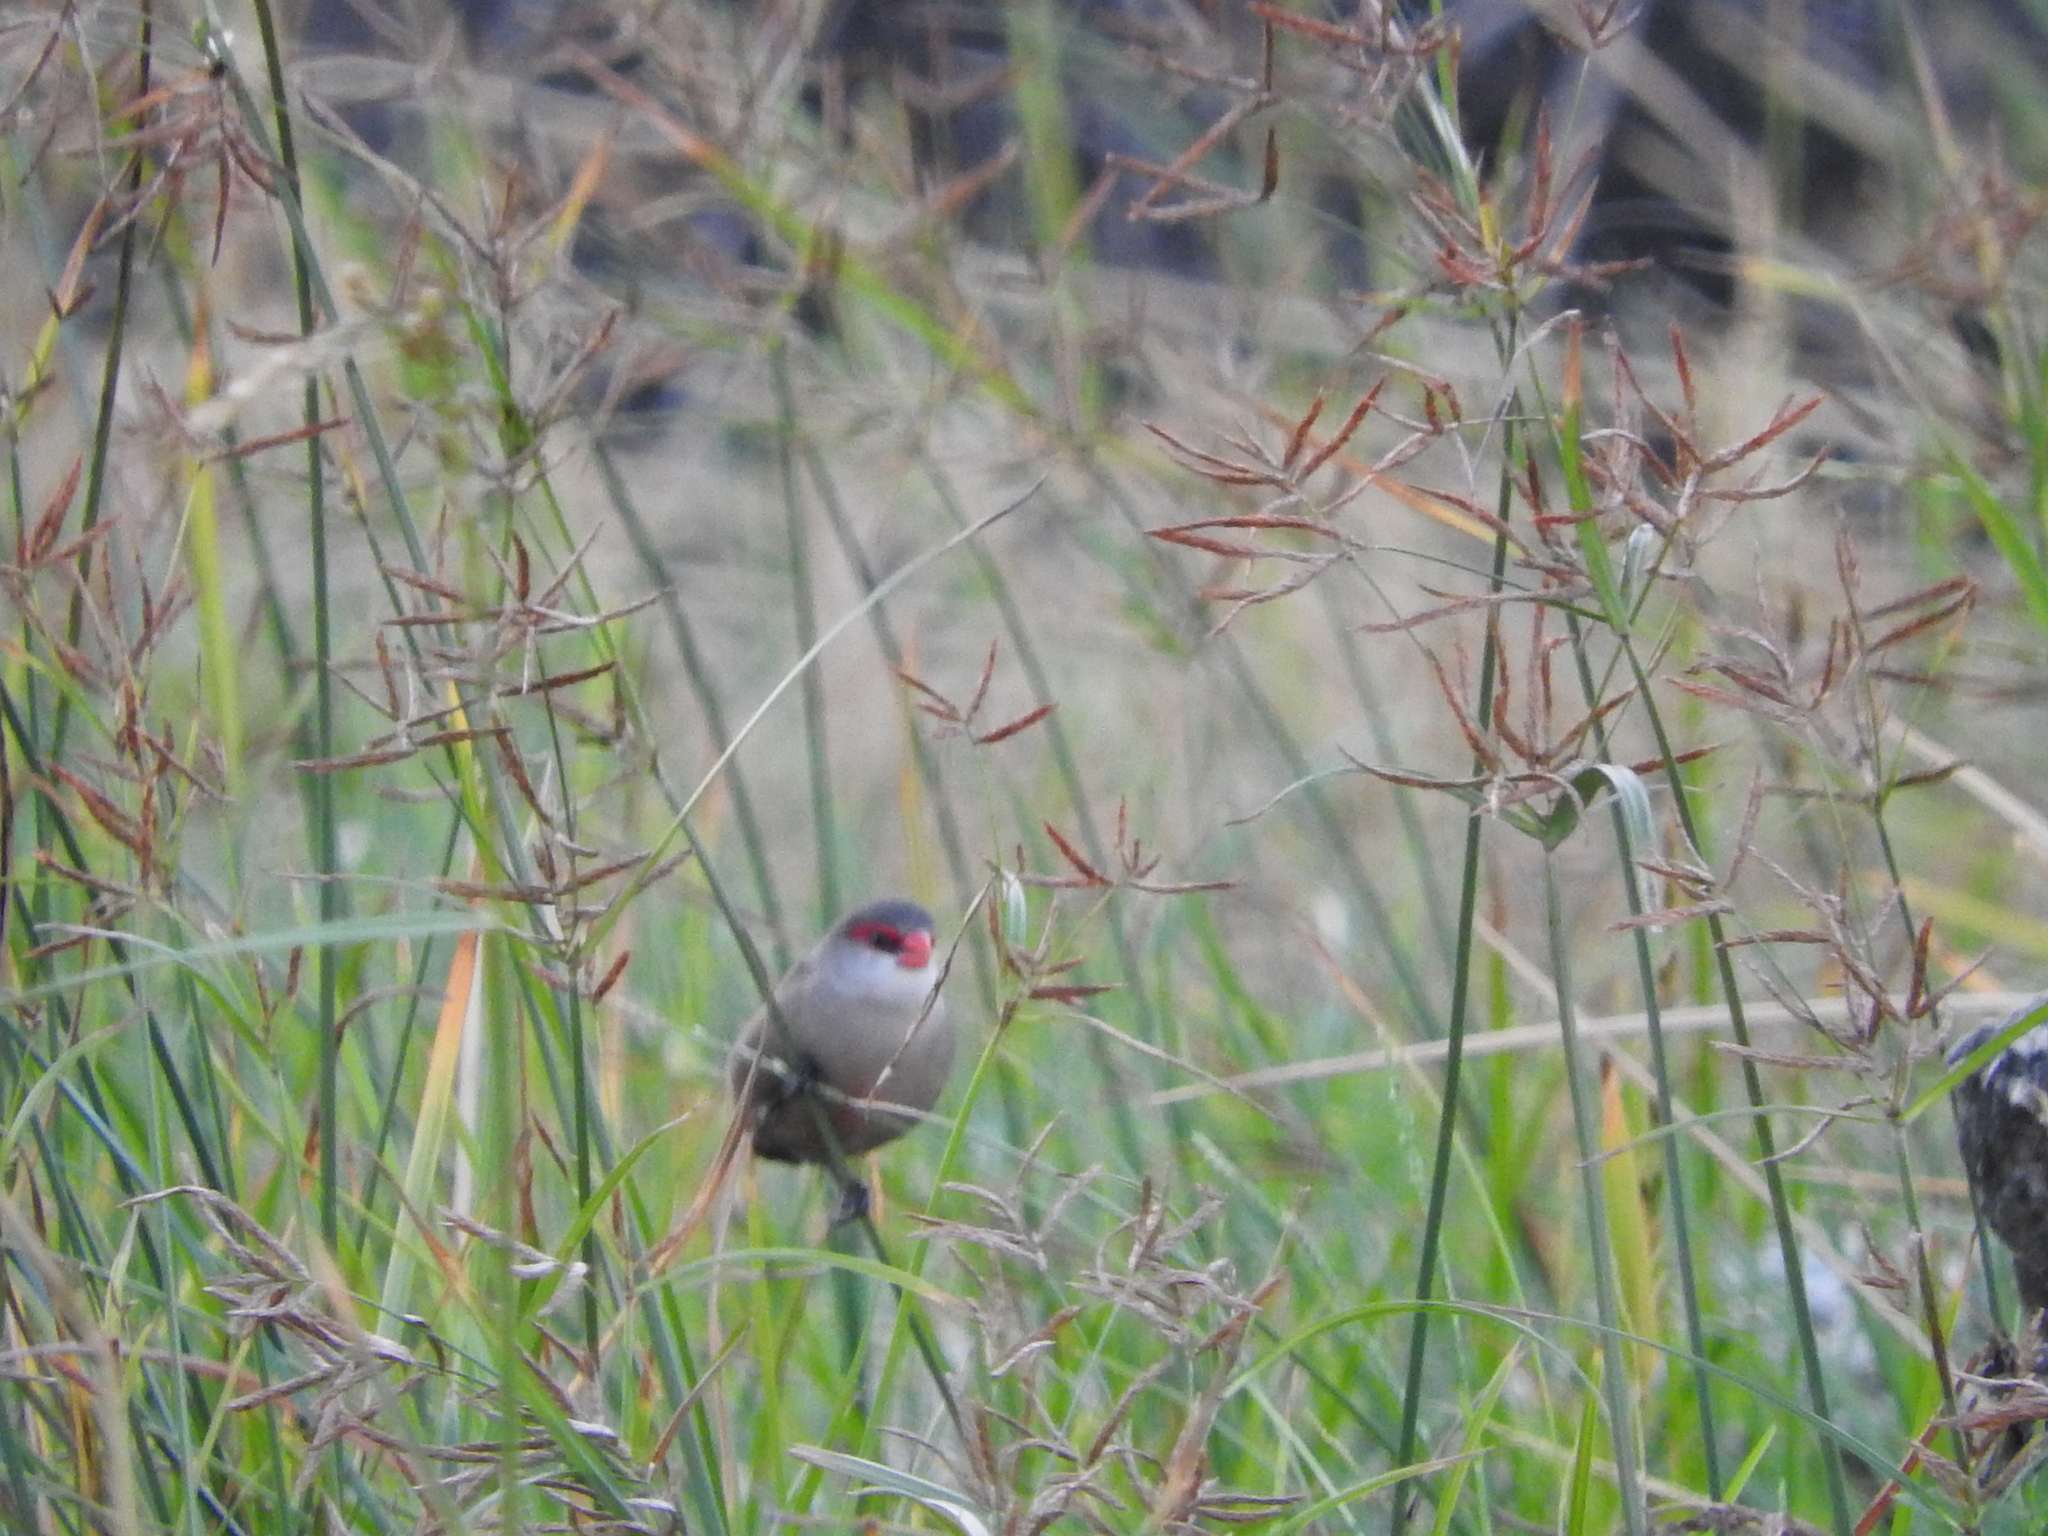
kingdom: Animalia
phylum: Chordata
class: Aves
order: Passeriformes
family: Estrildidae
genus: Estrilda
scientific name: Estrilda astrild
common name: Common waxbill
